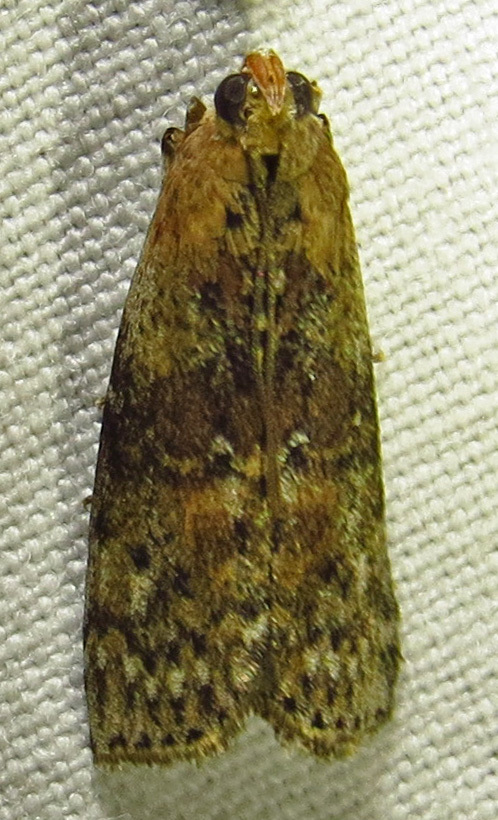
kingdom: Animalia
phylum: Arthropoda
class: Insecta
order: Lepidoptera
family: Pyralidae
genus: Sciota
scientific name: Sciota celtidella
